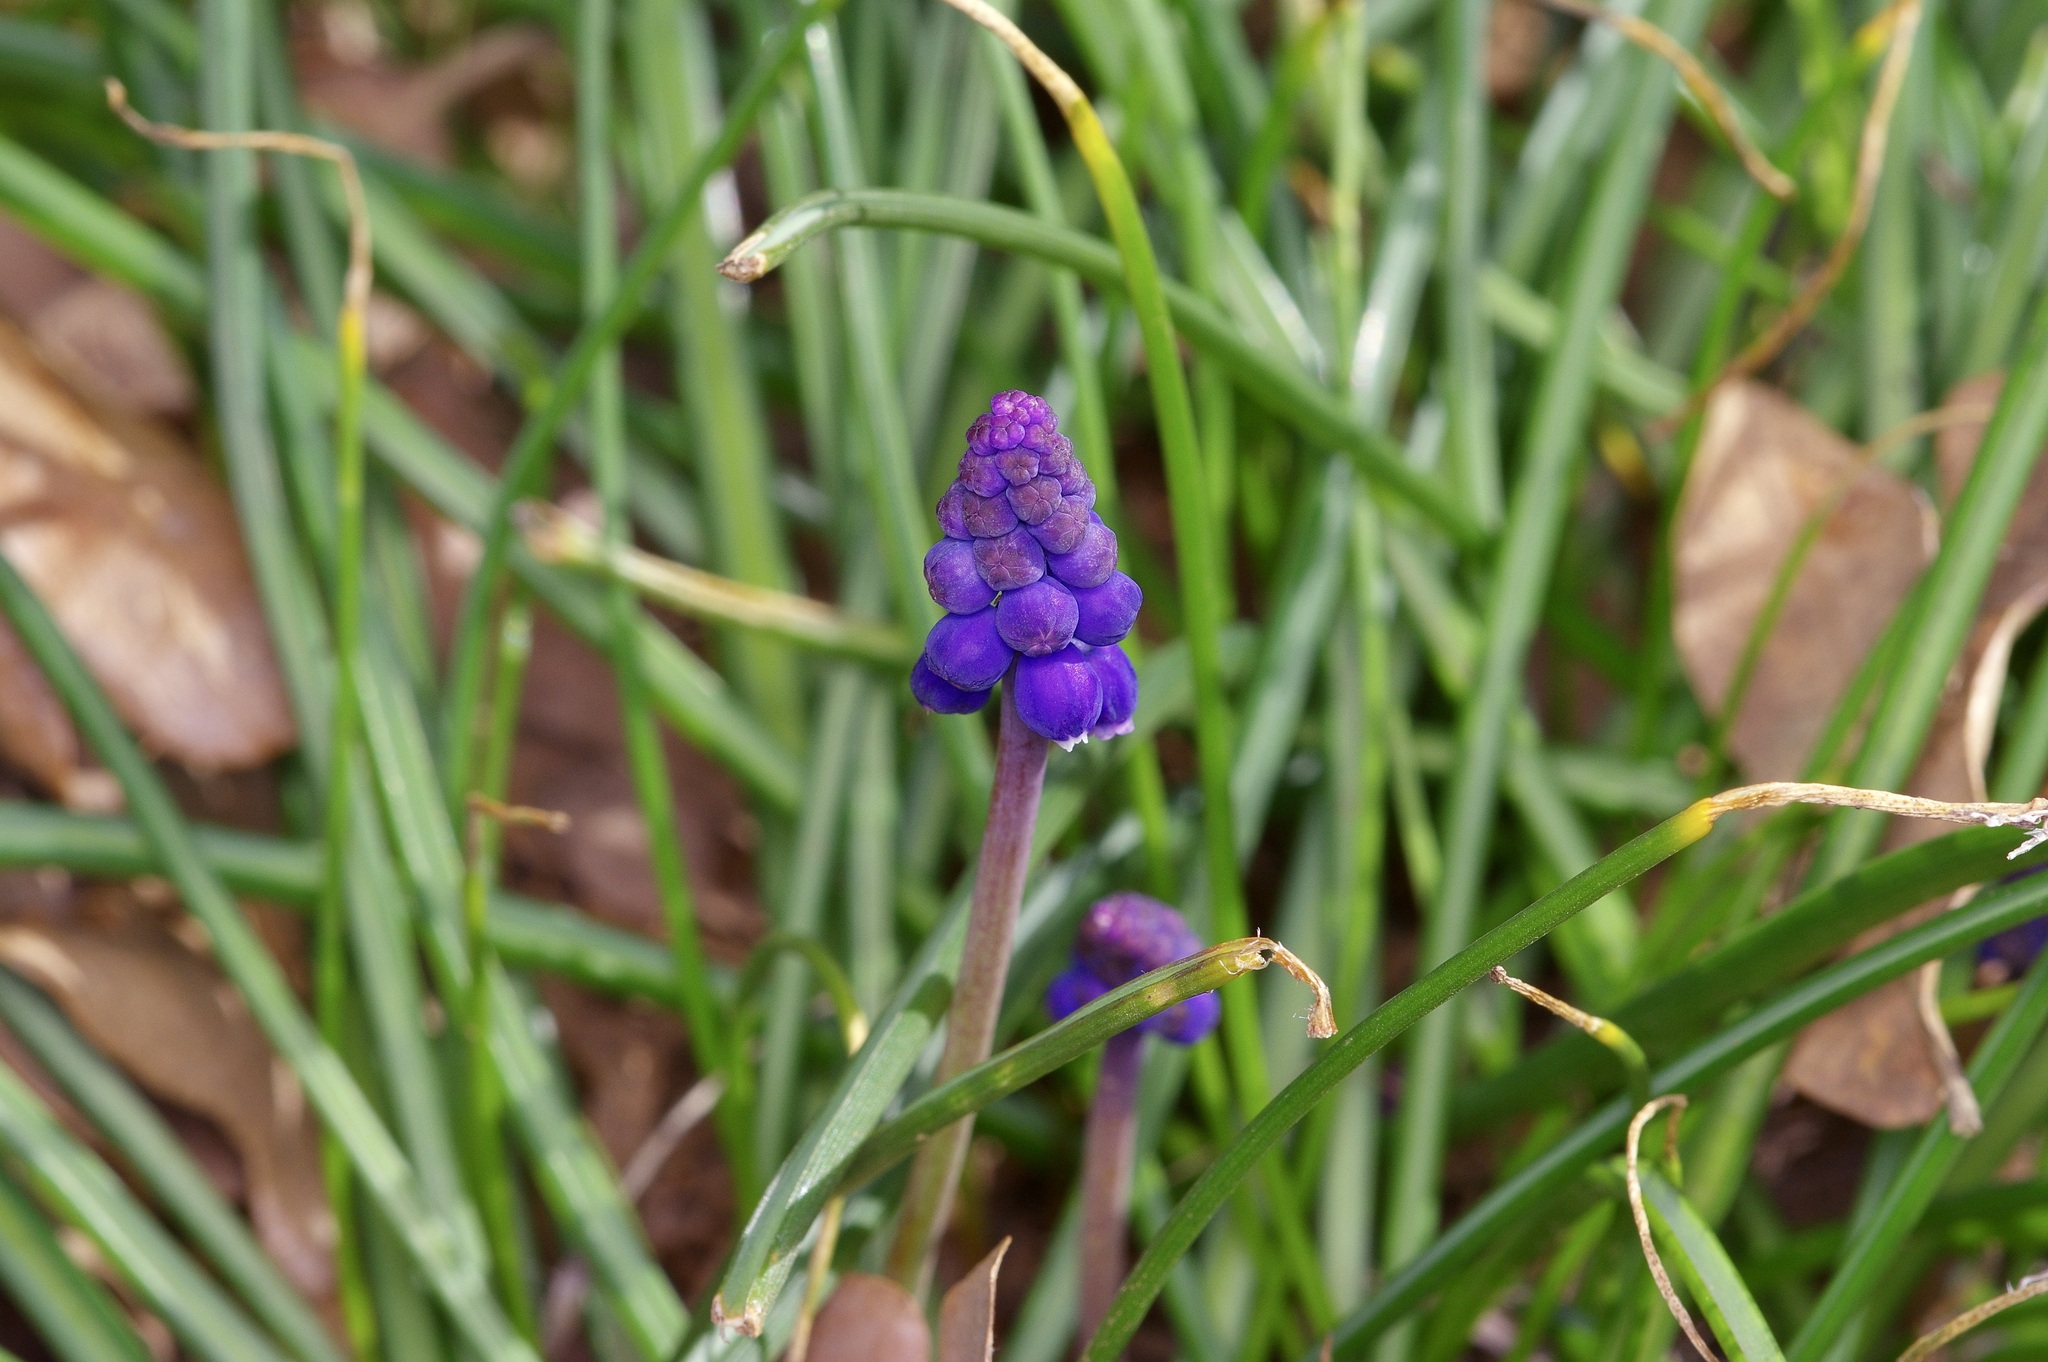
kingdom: Plantae
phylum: Tracheophyta
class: Liliopsida
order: Asparagales
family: Asparagaceae
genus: Muscari
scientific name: Muscari neglectum
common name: Grape-hyacinth
